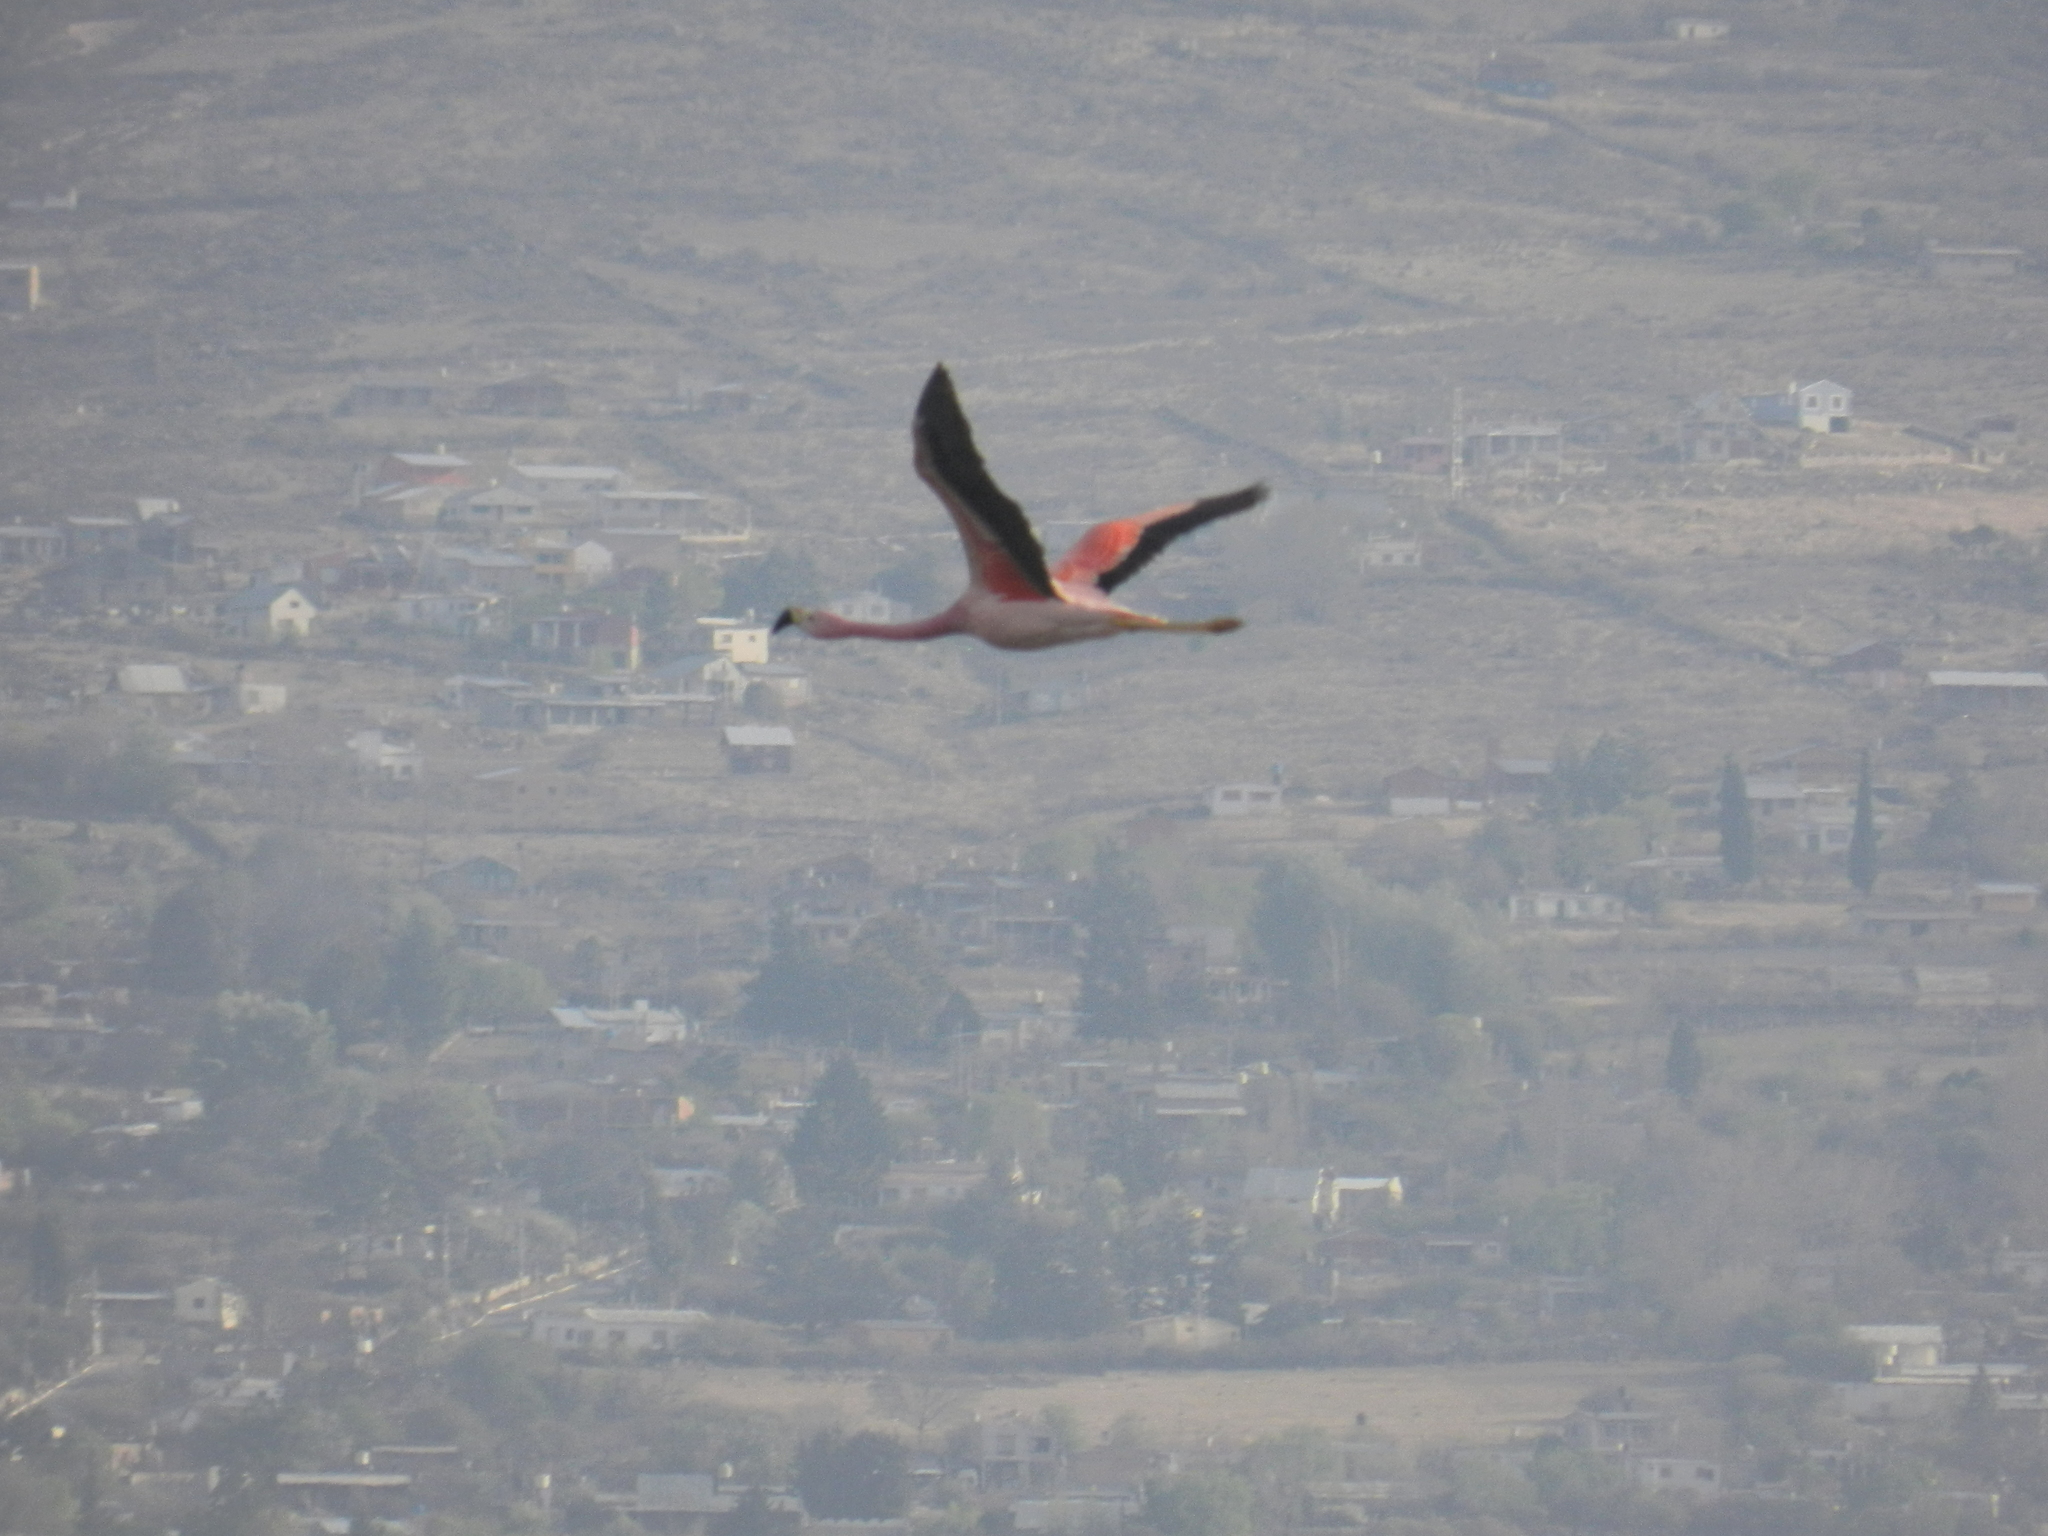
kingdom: Animalia
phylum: Chordata
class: Aves
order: Phoenicopteriformes
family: Phoenicopteridae
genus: Phoenicoparrus
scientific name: Phoenicoparrus andinus
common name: Andean flamingo
